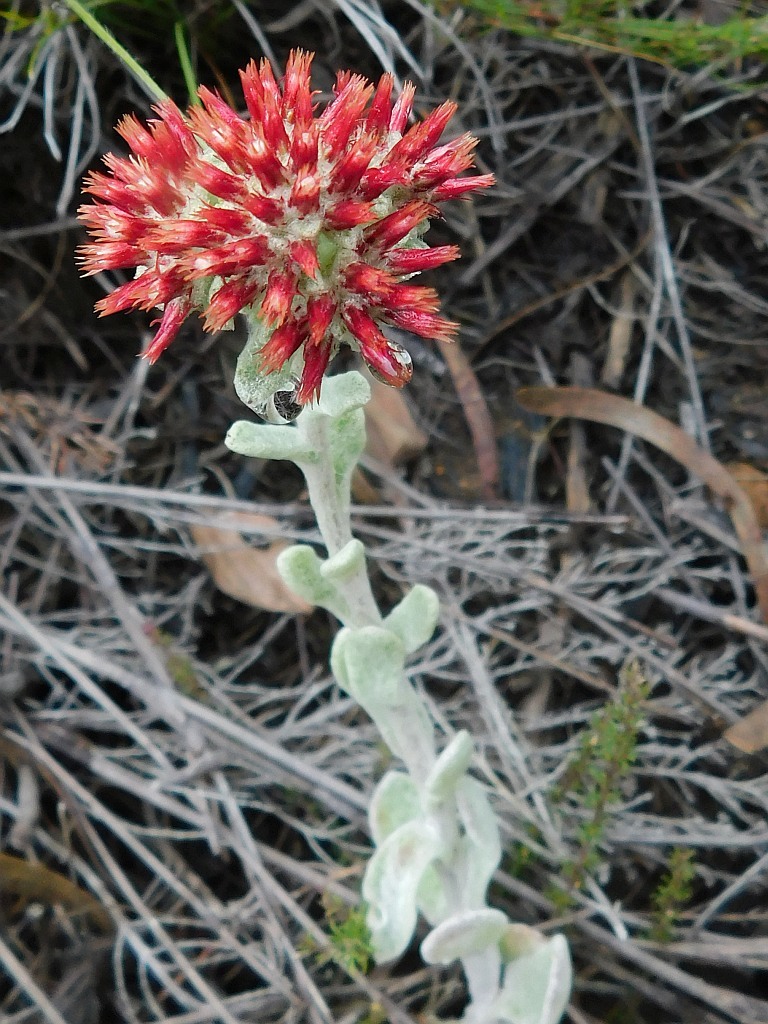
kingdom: Plantae
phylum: Tracheophyta
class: Magnoliopsida
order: Asterales
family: Asteraceae
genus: Helichrysum
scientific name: Helichrysum spiralepis
